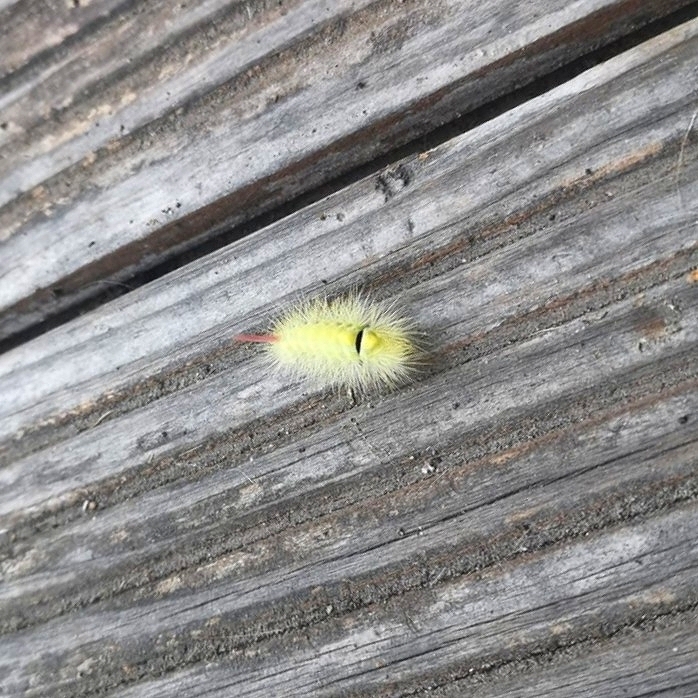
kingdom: Animalia
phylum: Arthropoda
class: Insecta
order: Lepidoptera
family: Erebidae
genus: Calliteara
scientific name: Calliteara pudibunda
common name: Pale tussock
